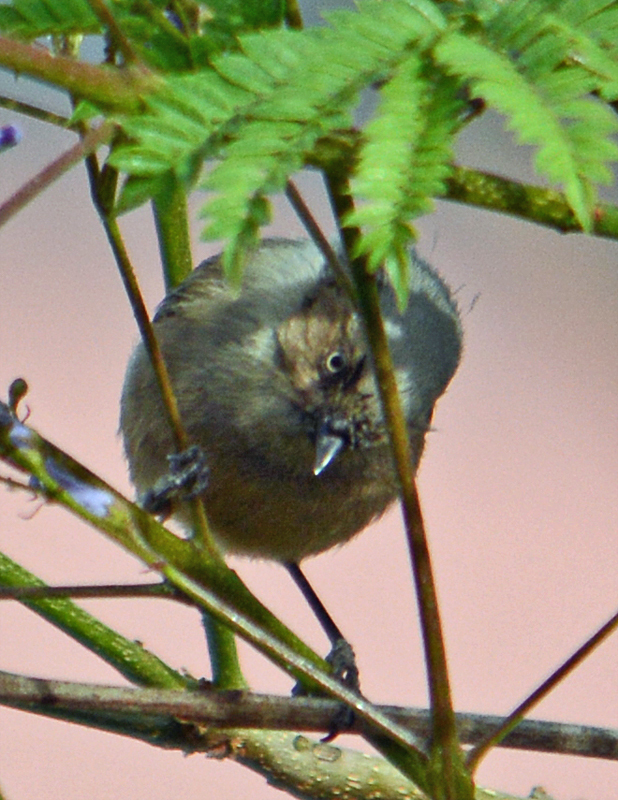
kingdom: Animalia
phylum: Chordata
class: Aves
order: Passeriformes
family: Aegithalidae
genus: Psaltriparus
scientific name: Psaltriparus minimus
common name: American bushtit
